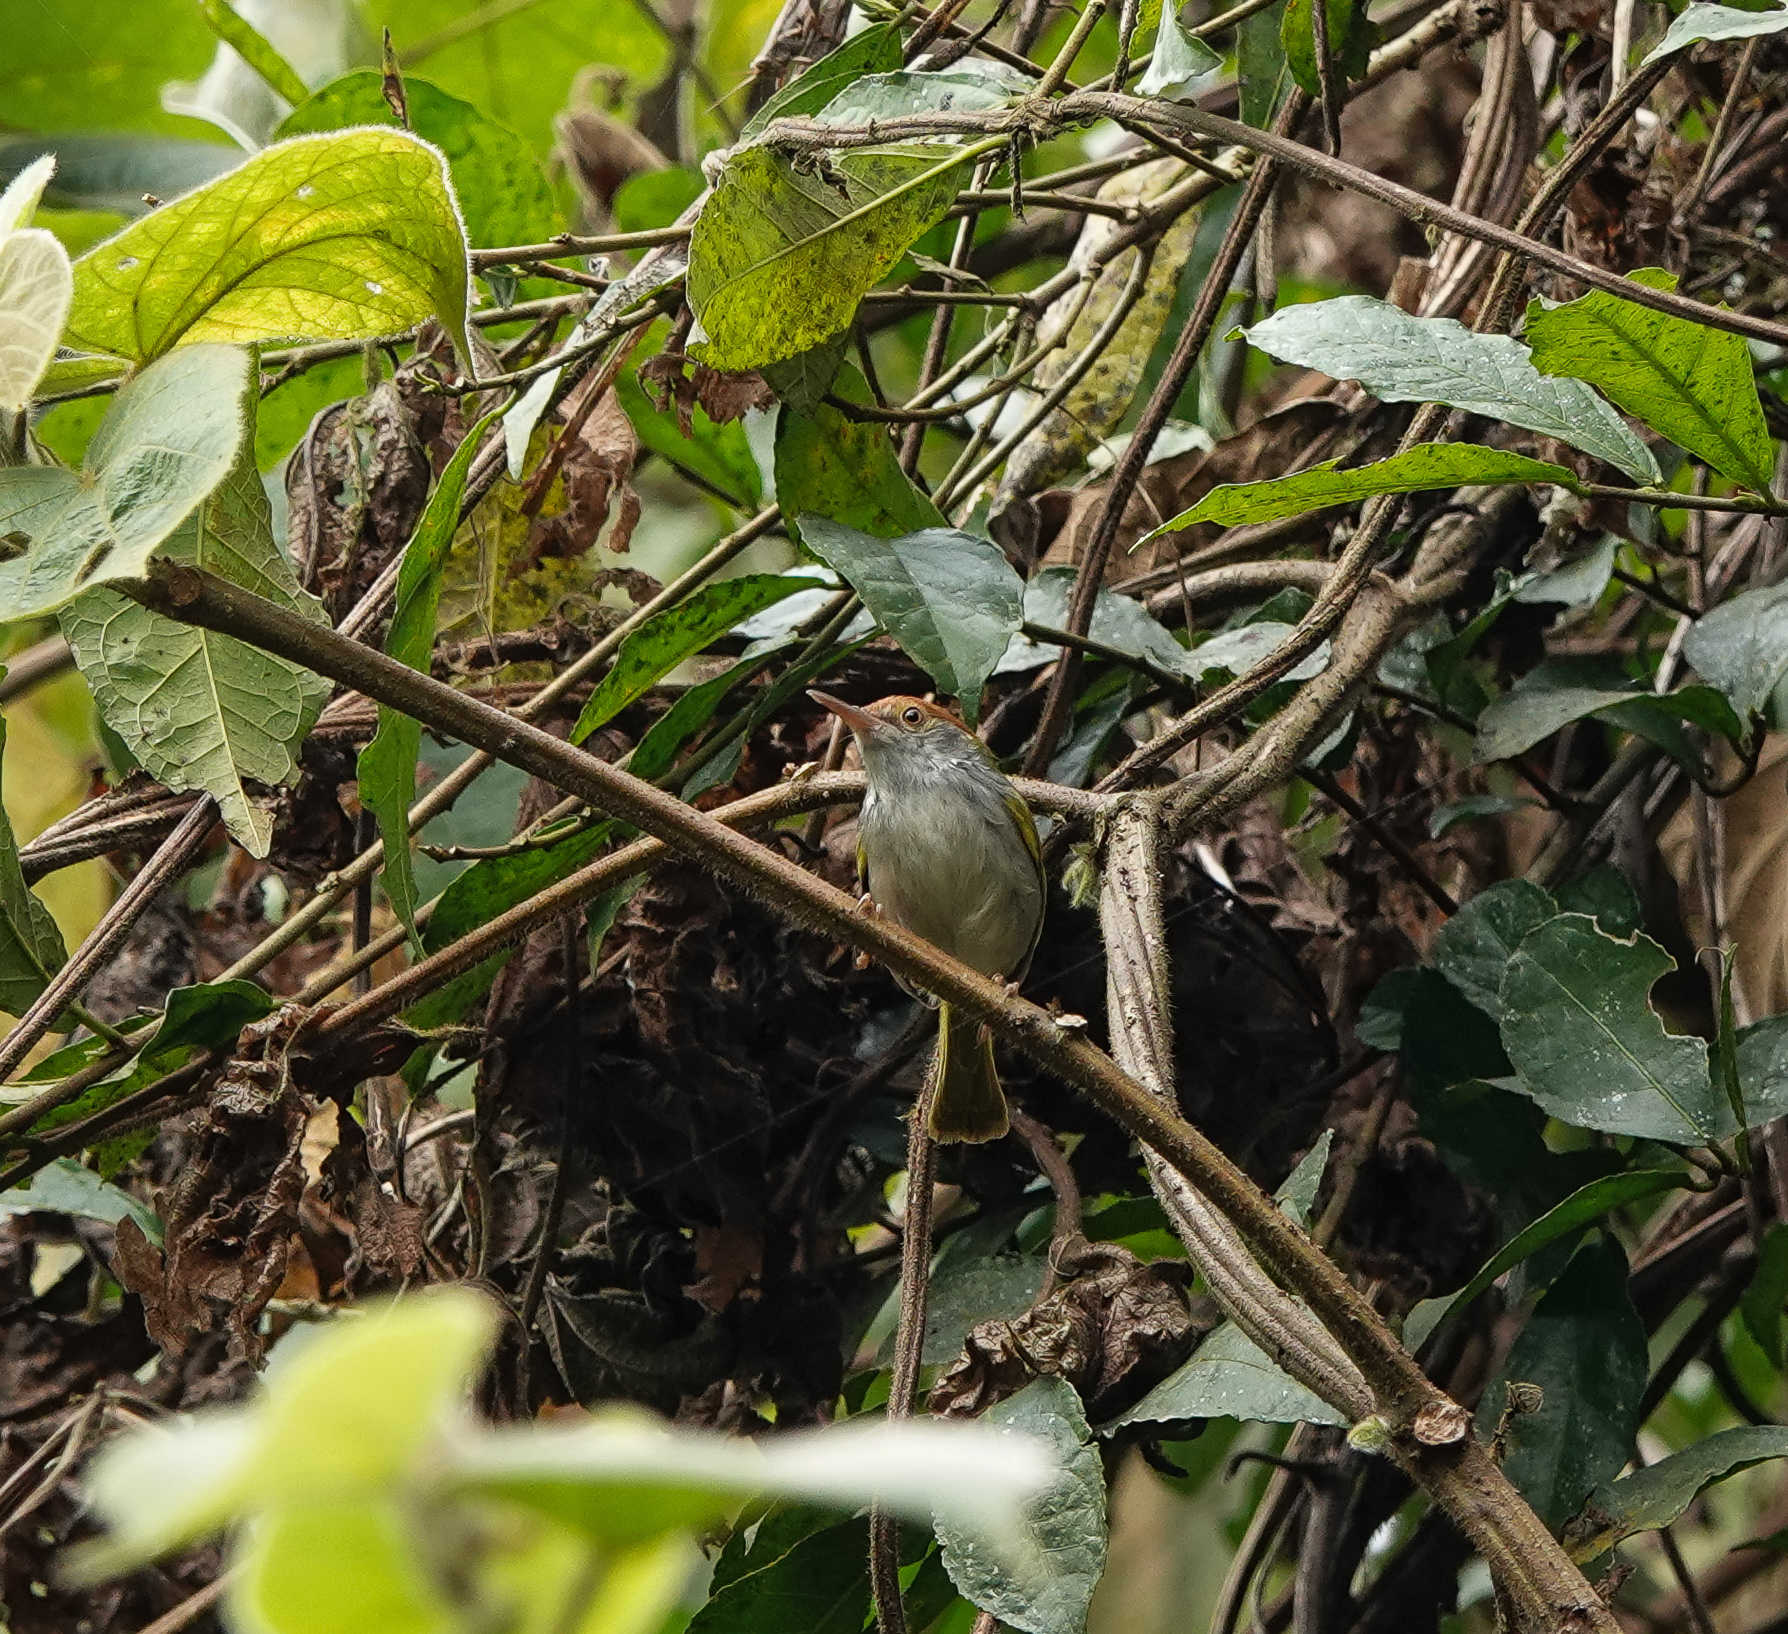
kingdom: Animalia
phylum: Chordata
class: Aves
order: Passeriformes
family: Cisticolidae
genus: Orthotomus
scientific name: Orthotomus atrogularis
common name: Dark-necked tailorbird
